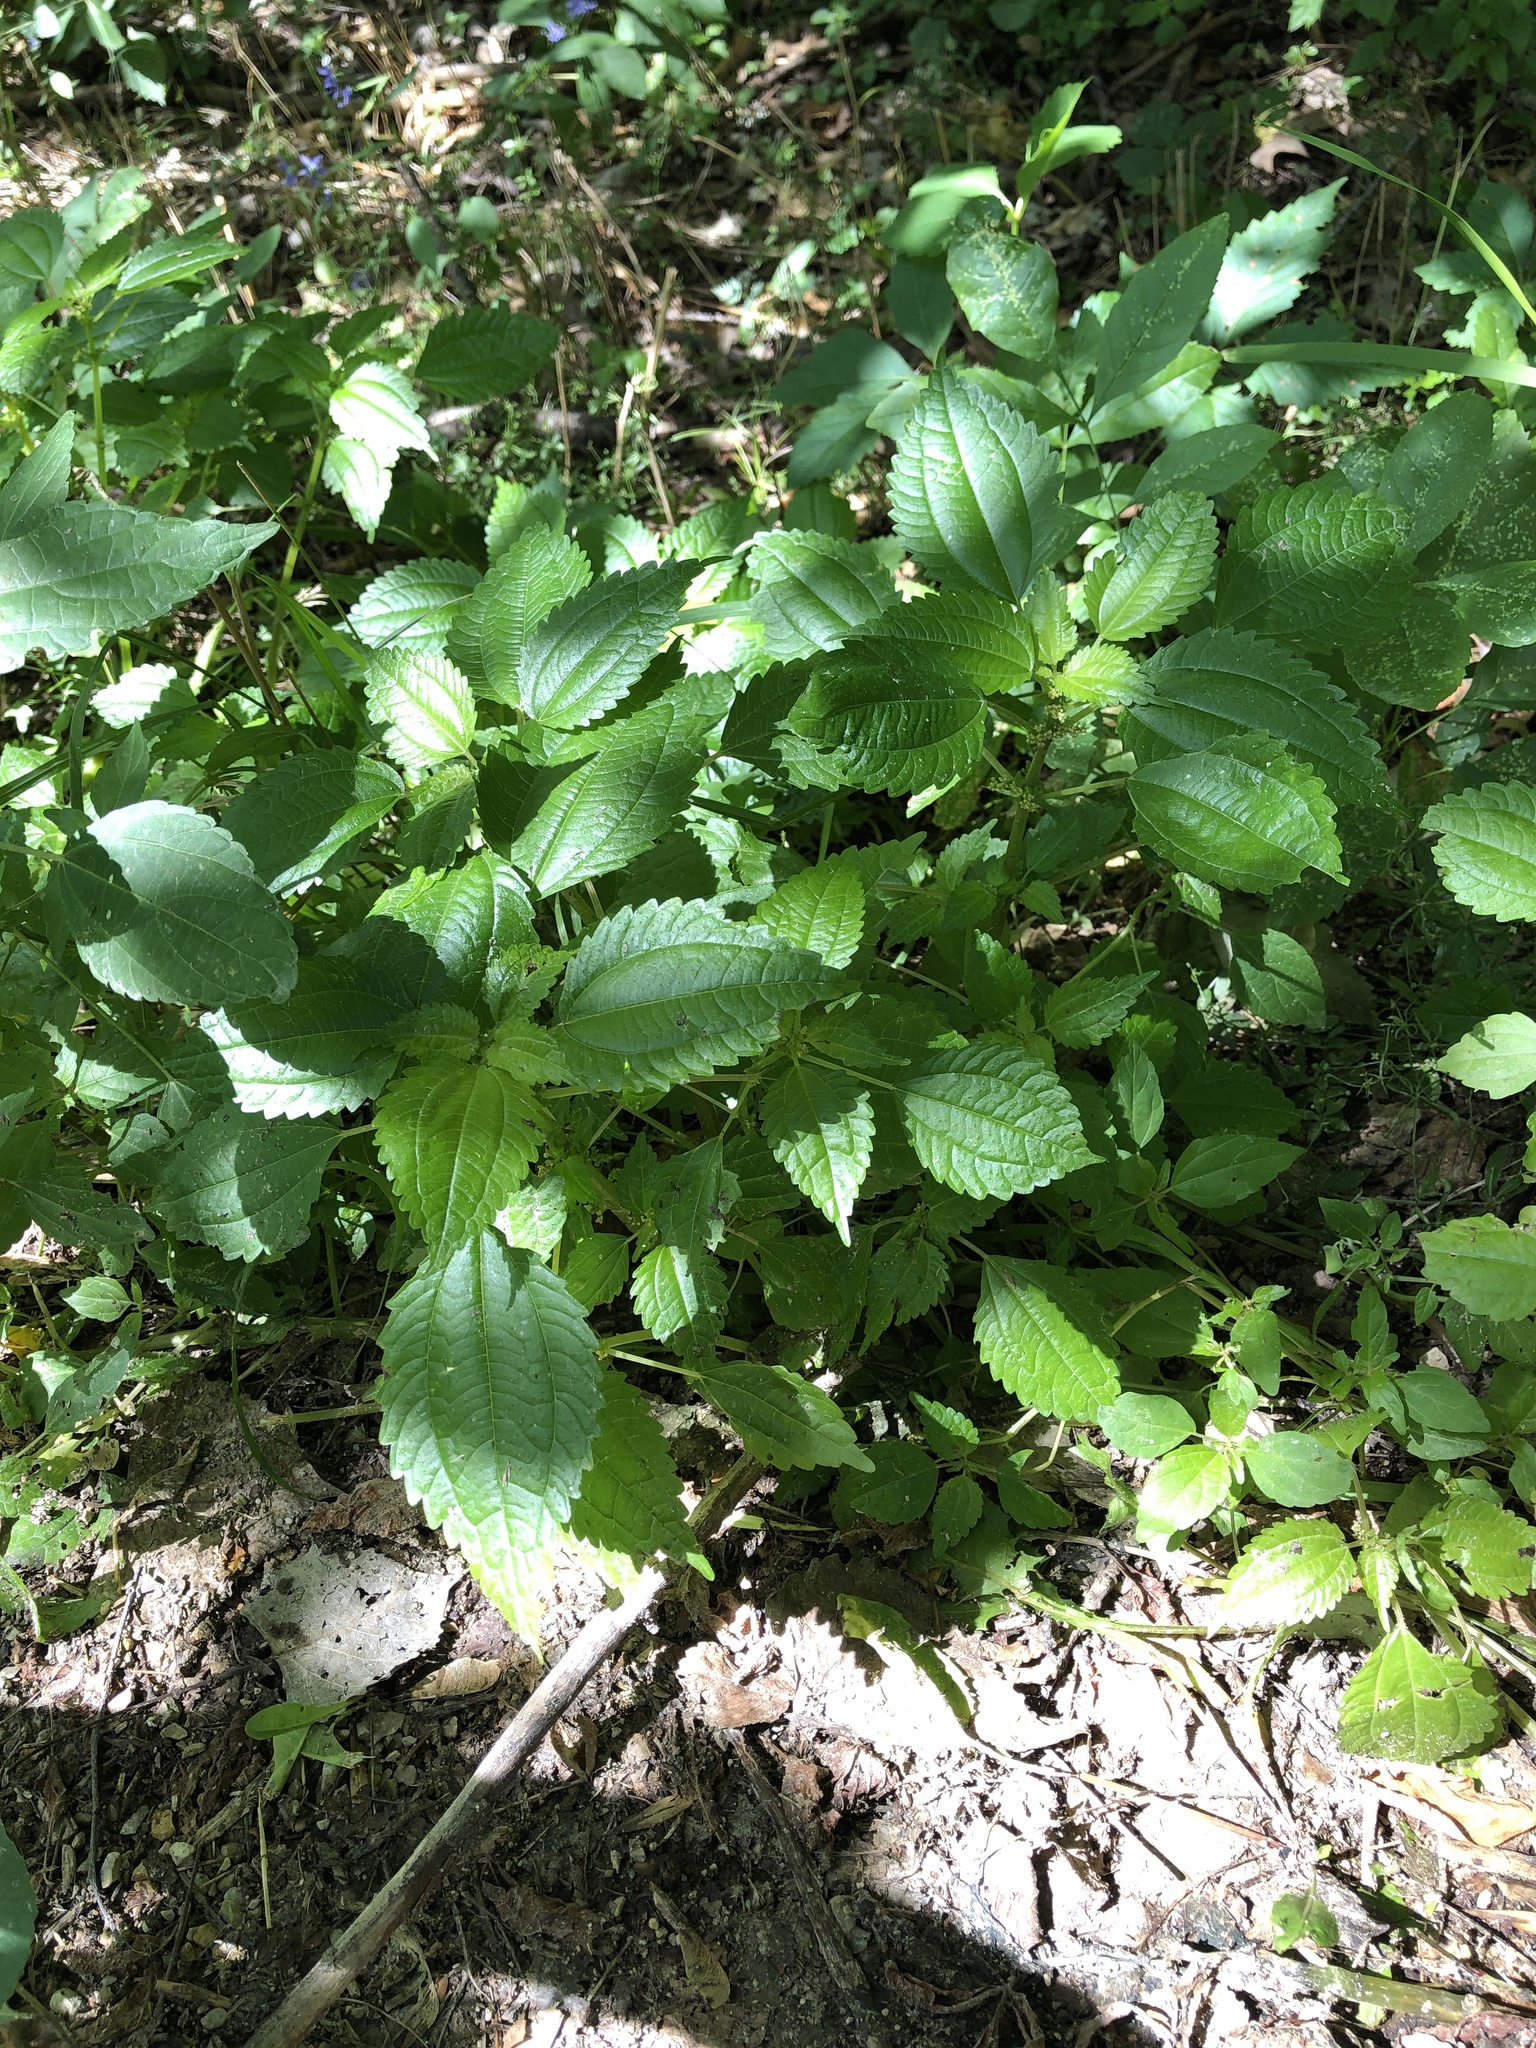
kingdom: Plantae
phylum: Tracheophyta
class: Magnoliopsida
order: Rosales
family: Urticaceae
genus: Pilea
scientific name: Pilea pumila
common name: Clearweed
